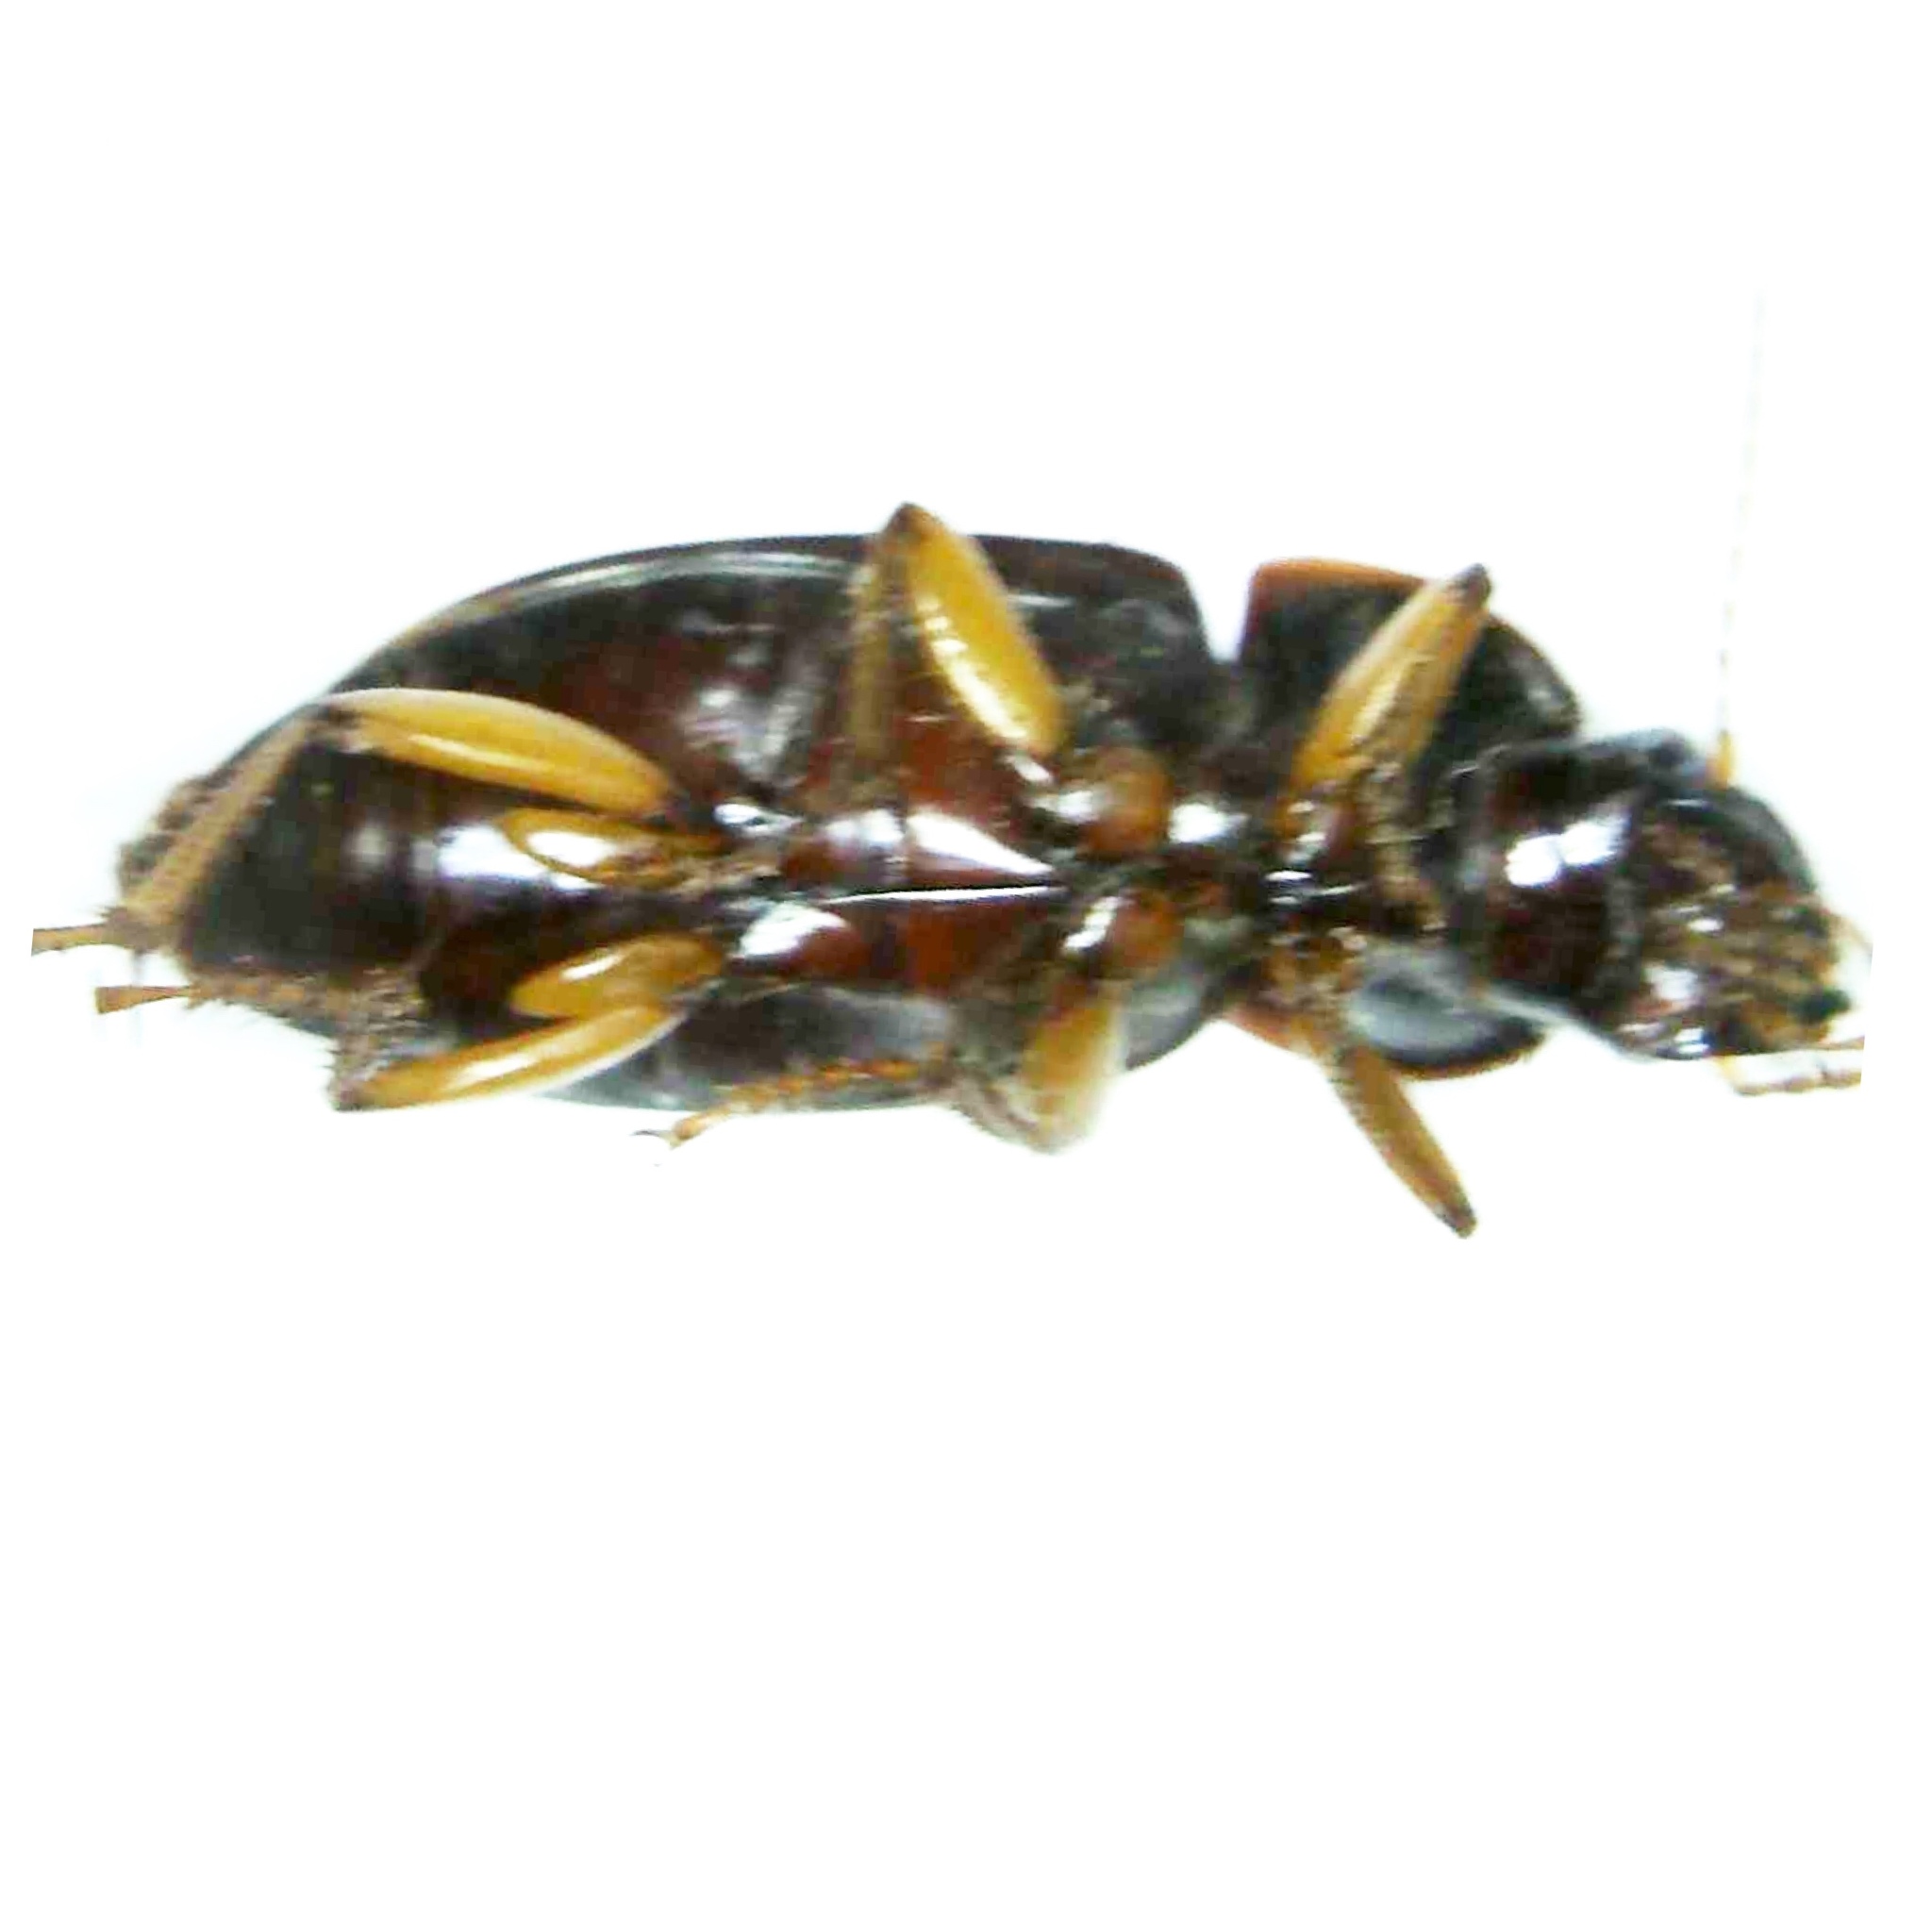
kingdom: Animalia
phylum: Arthropoda
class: Insecta
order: Coleoptera
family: Carabidae
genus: Harpalus
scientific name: Harpalus pensylvanicus
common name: Pennsylvania dingy ground beetle
